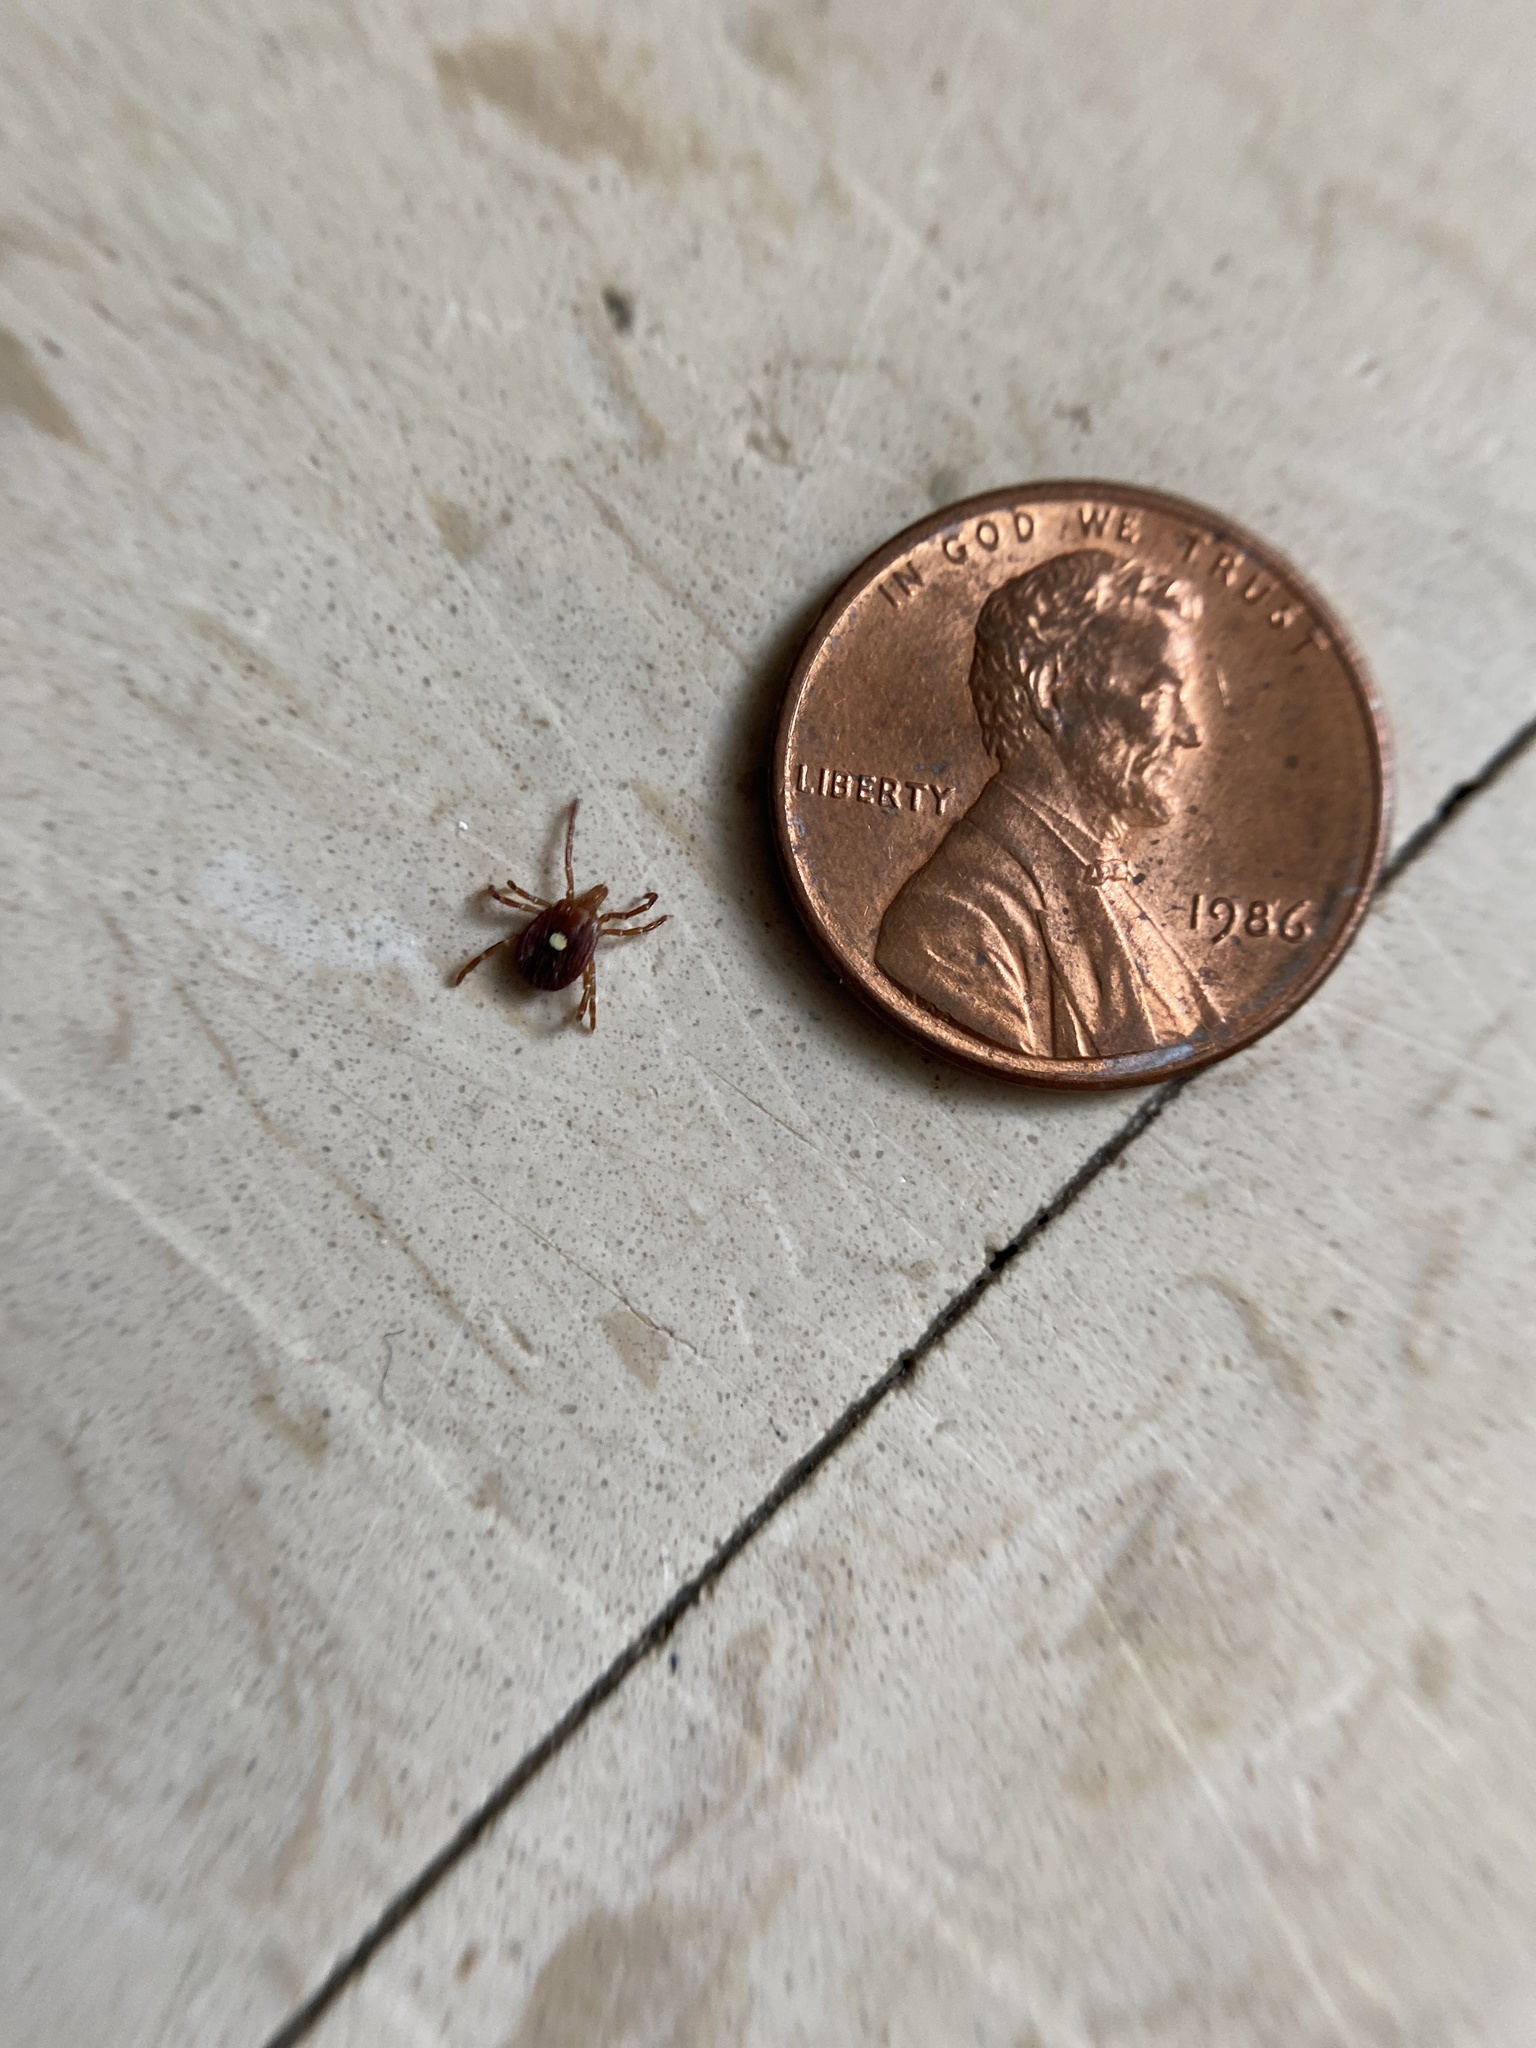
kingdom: Animalia
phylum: Arthropoda
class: Arachnida
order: Ixodida
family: Ixodidae
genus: Amblyomma
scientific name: Amblyomma americanum
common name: Lone star tick
